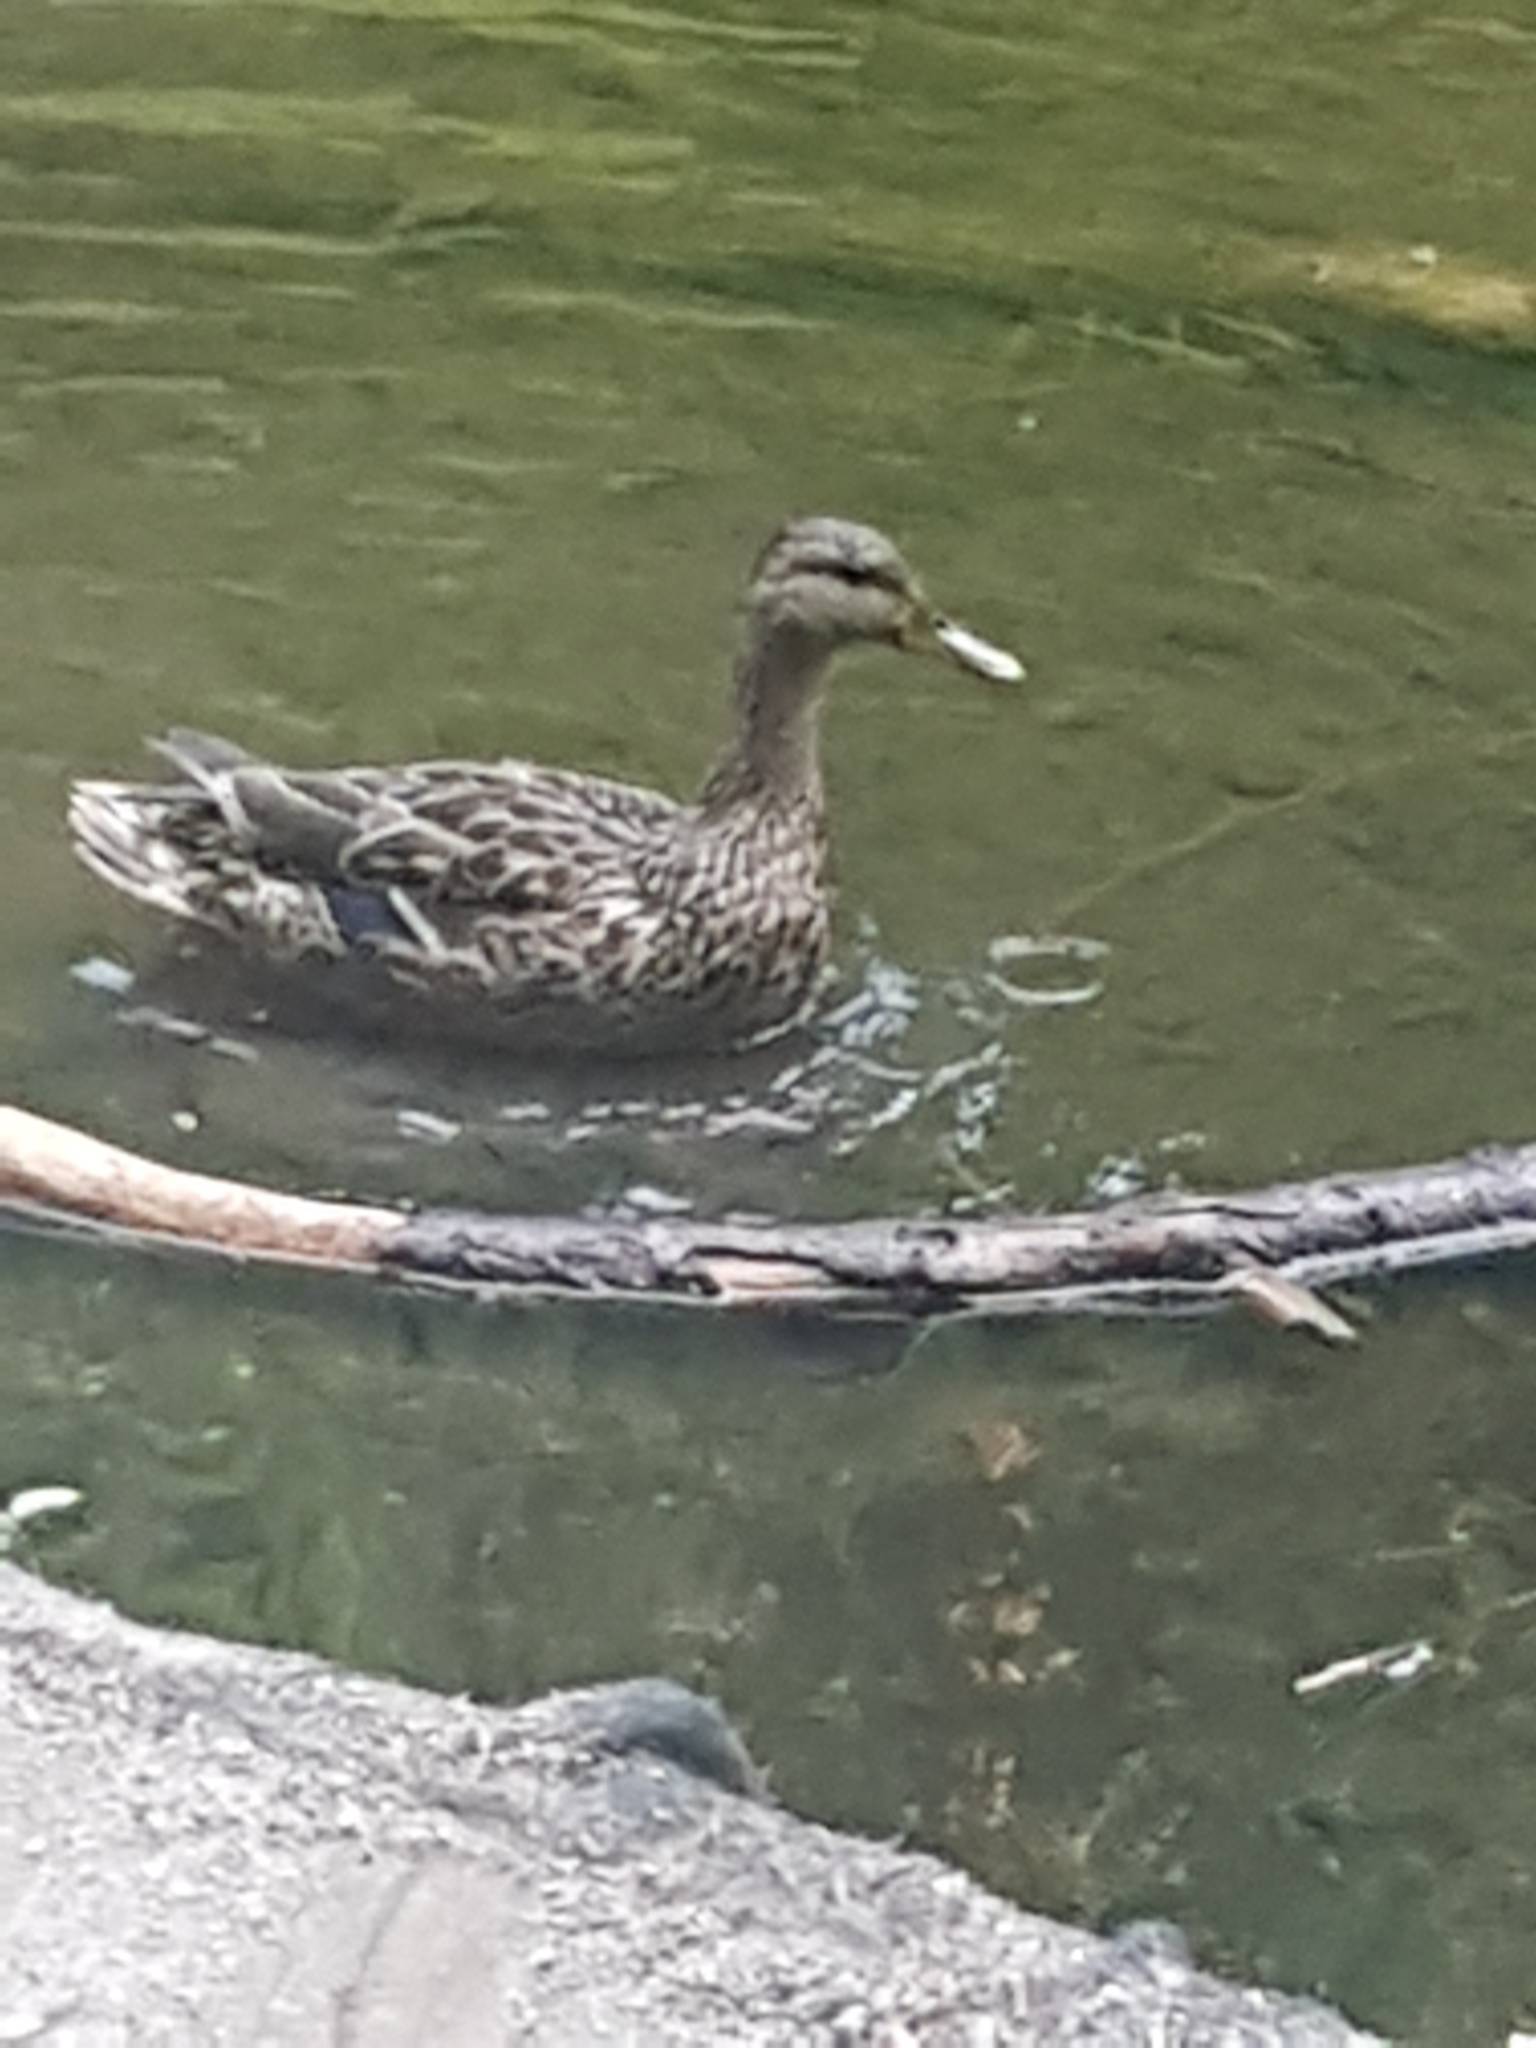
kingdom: Animalia
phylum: Chordata
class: Aves
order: Anseriformes
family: Anatidae
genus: Anas
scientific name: Anas platyrhynchos
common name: Mallard
